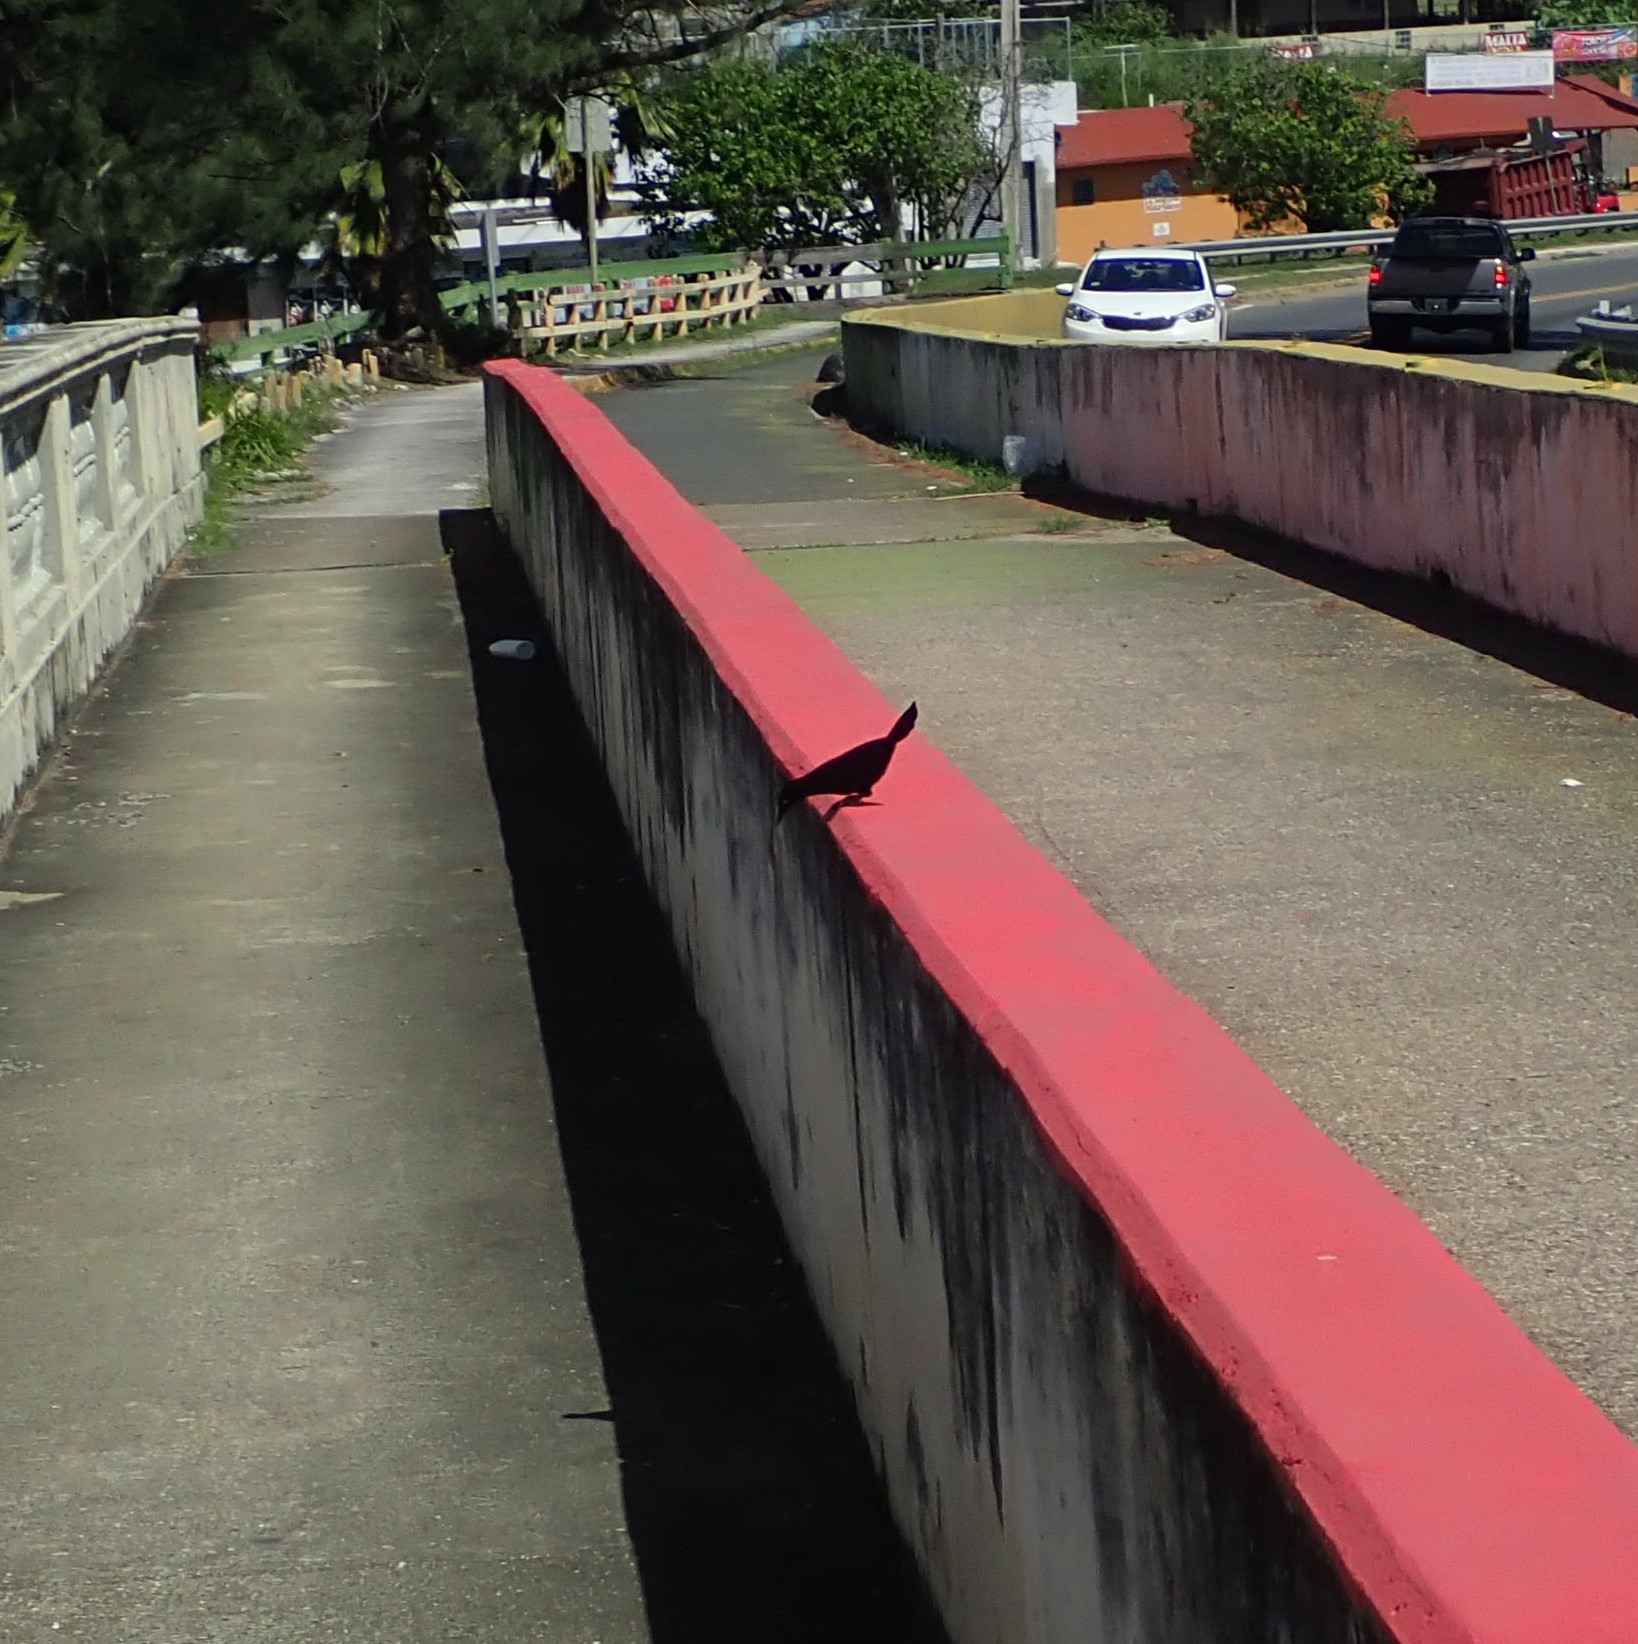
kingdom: Animalia
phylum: Chordata
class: Aves
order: Passeriformes
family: Icteridae
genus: Quiscalus
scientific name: Quiscalus niger
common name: Greater antillean grackle
